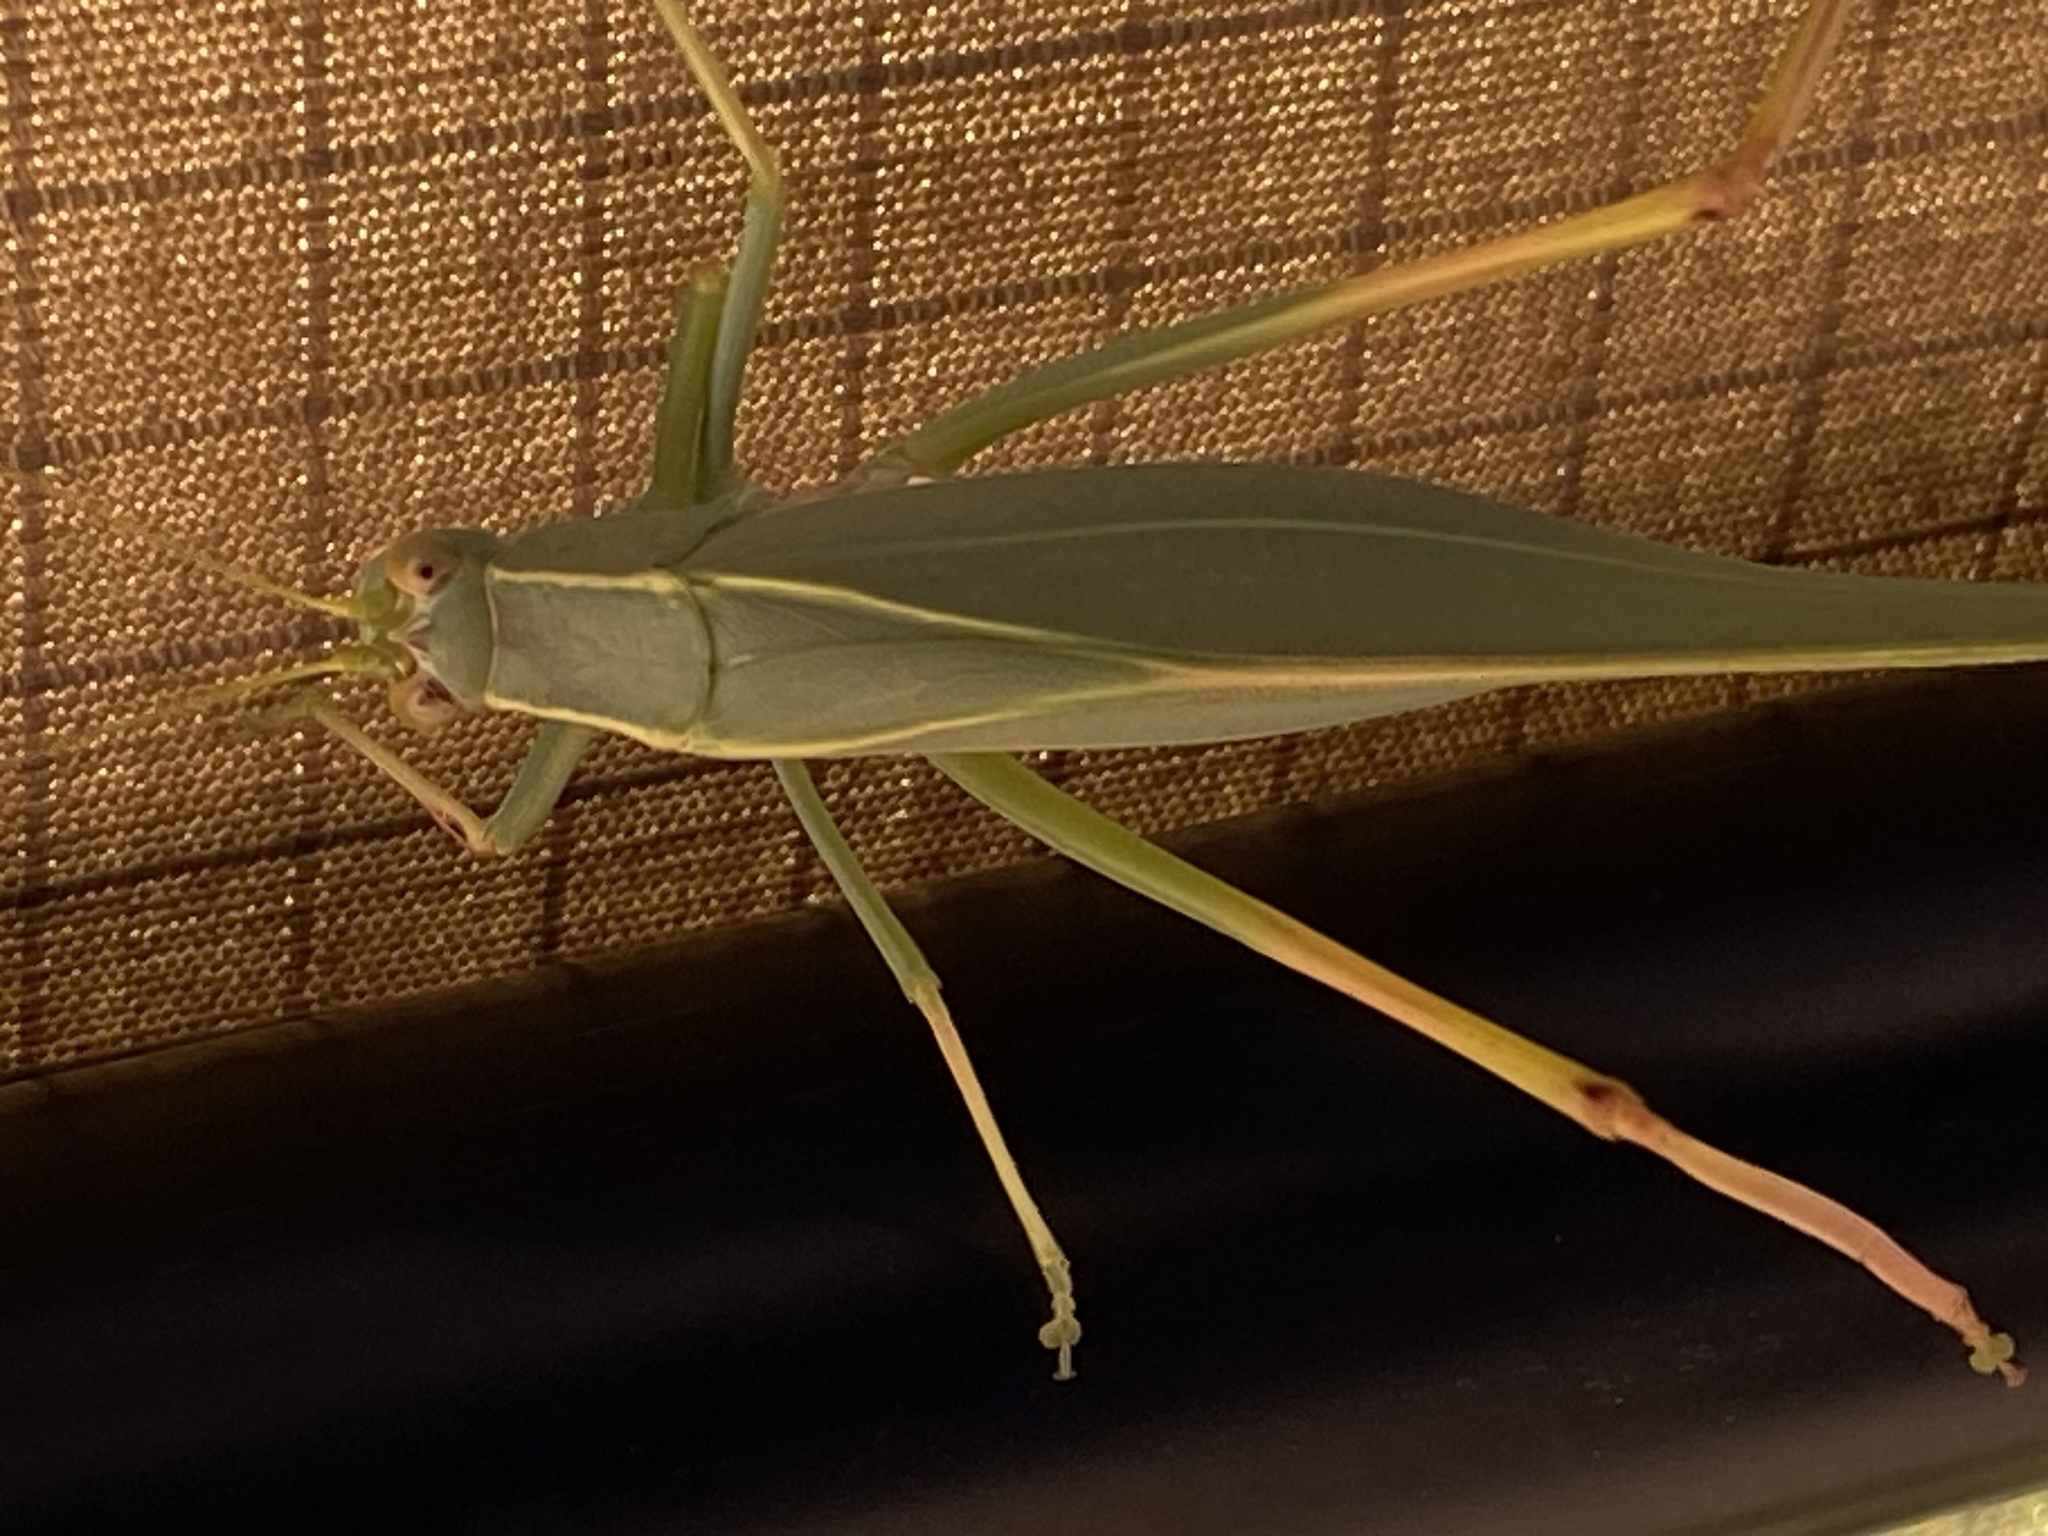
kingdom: Animalia
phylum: Arthropoda
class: Insecta
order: Orthoptera
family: Tettigoniidae
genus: Torbia
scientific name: Torbia viridissima
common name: Non-predaceous gum leaf katydid
